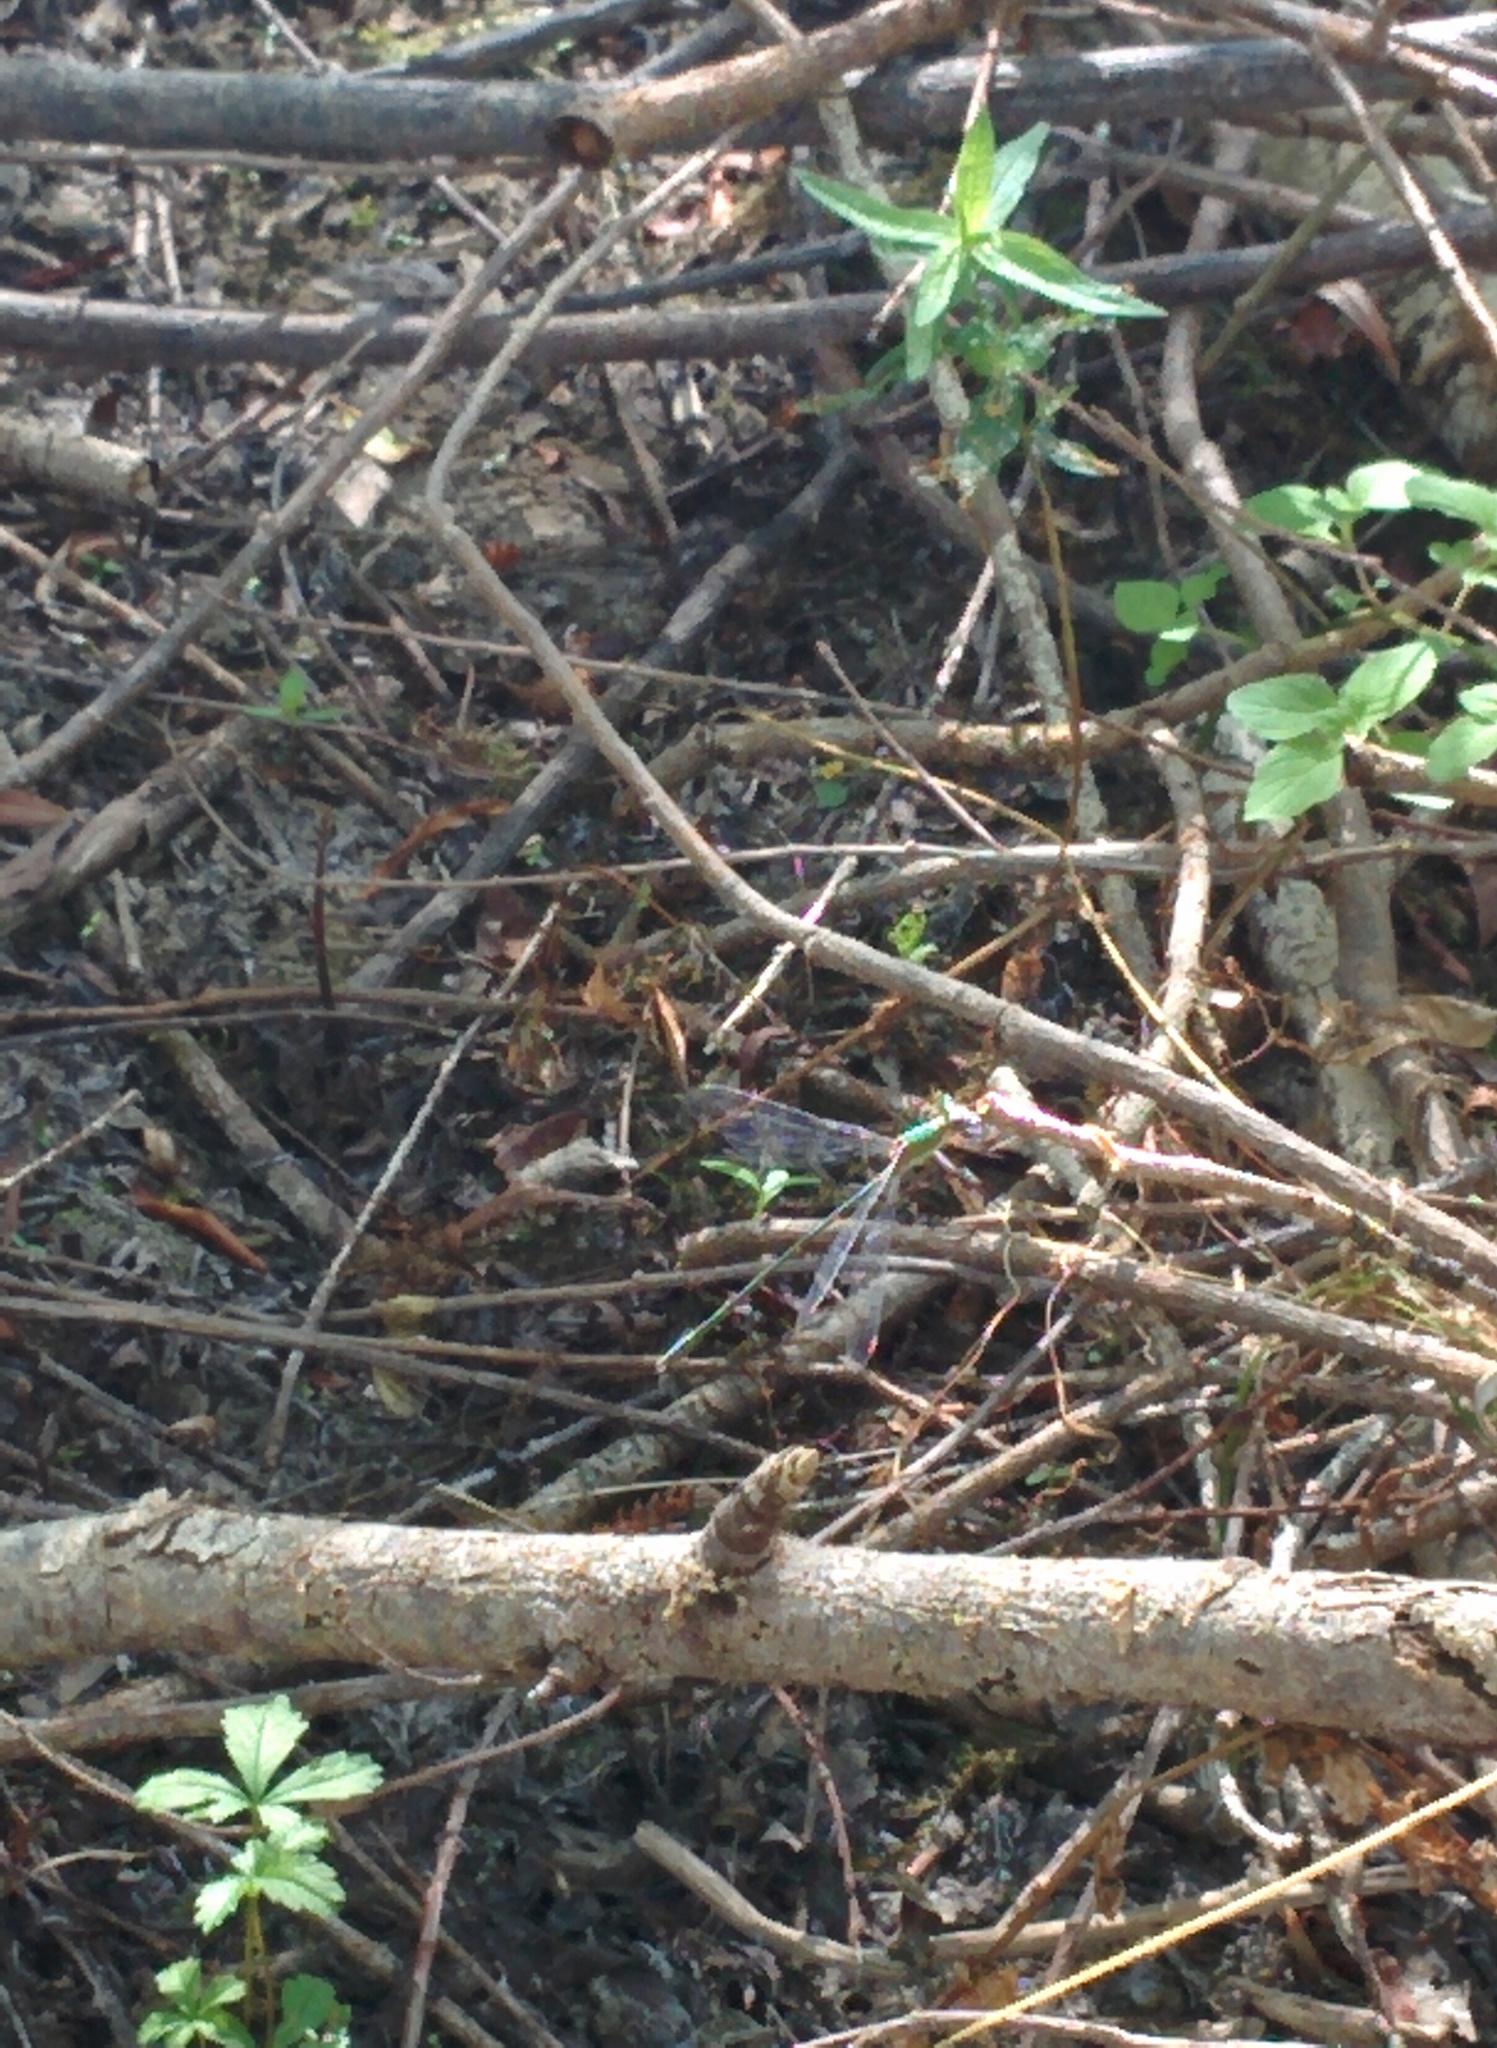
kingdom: Animalia
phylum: Arthropoda
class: Insecta
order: Odonata
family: Lestidae
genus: Chalcolestes
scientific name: Chalcolestes viridis
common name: Green emerald damselfly
